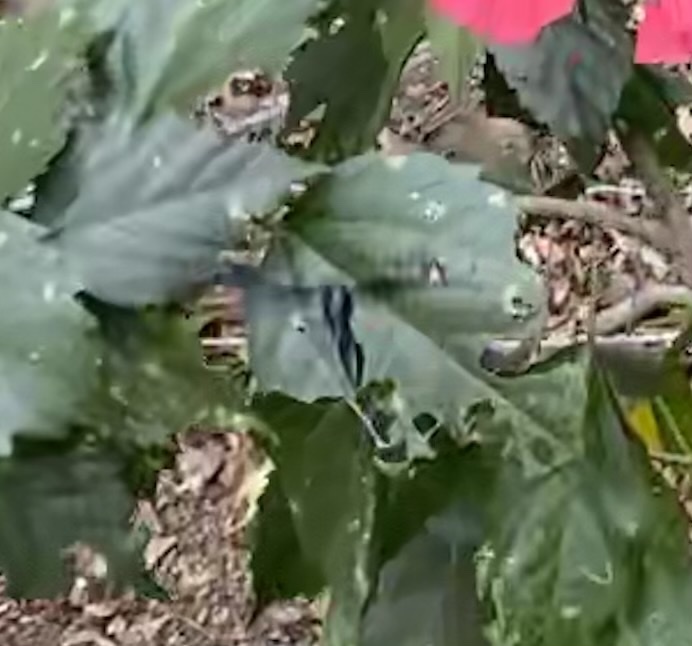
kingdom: Animalia
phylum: Arthropoda
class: Insecta
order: Hymenoptera
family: Eumenidae
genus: Phimenes
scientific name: Phimenes curvatus
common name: Black delta vespid wasp
